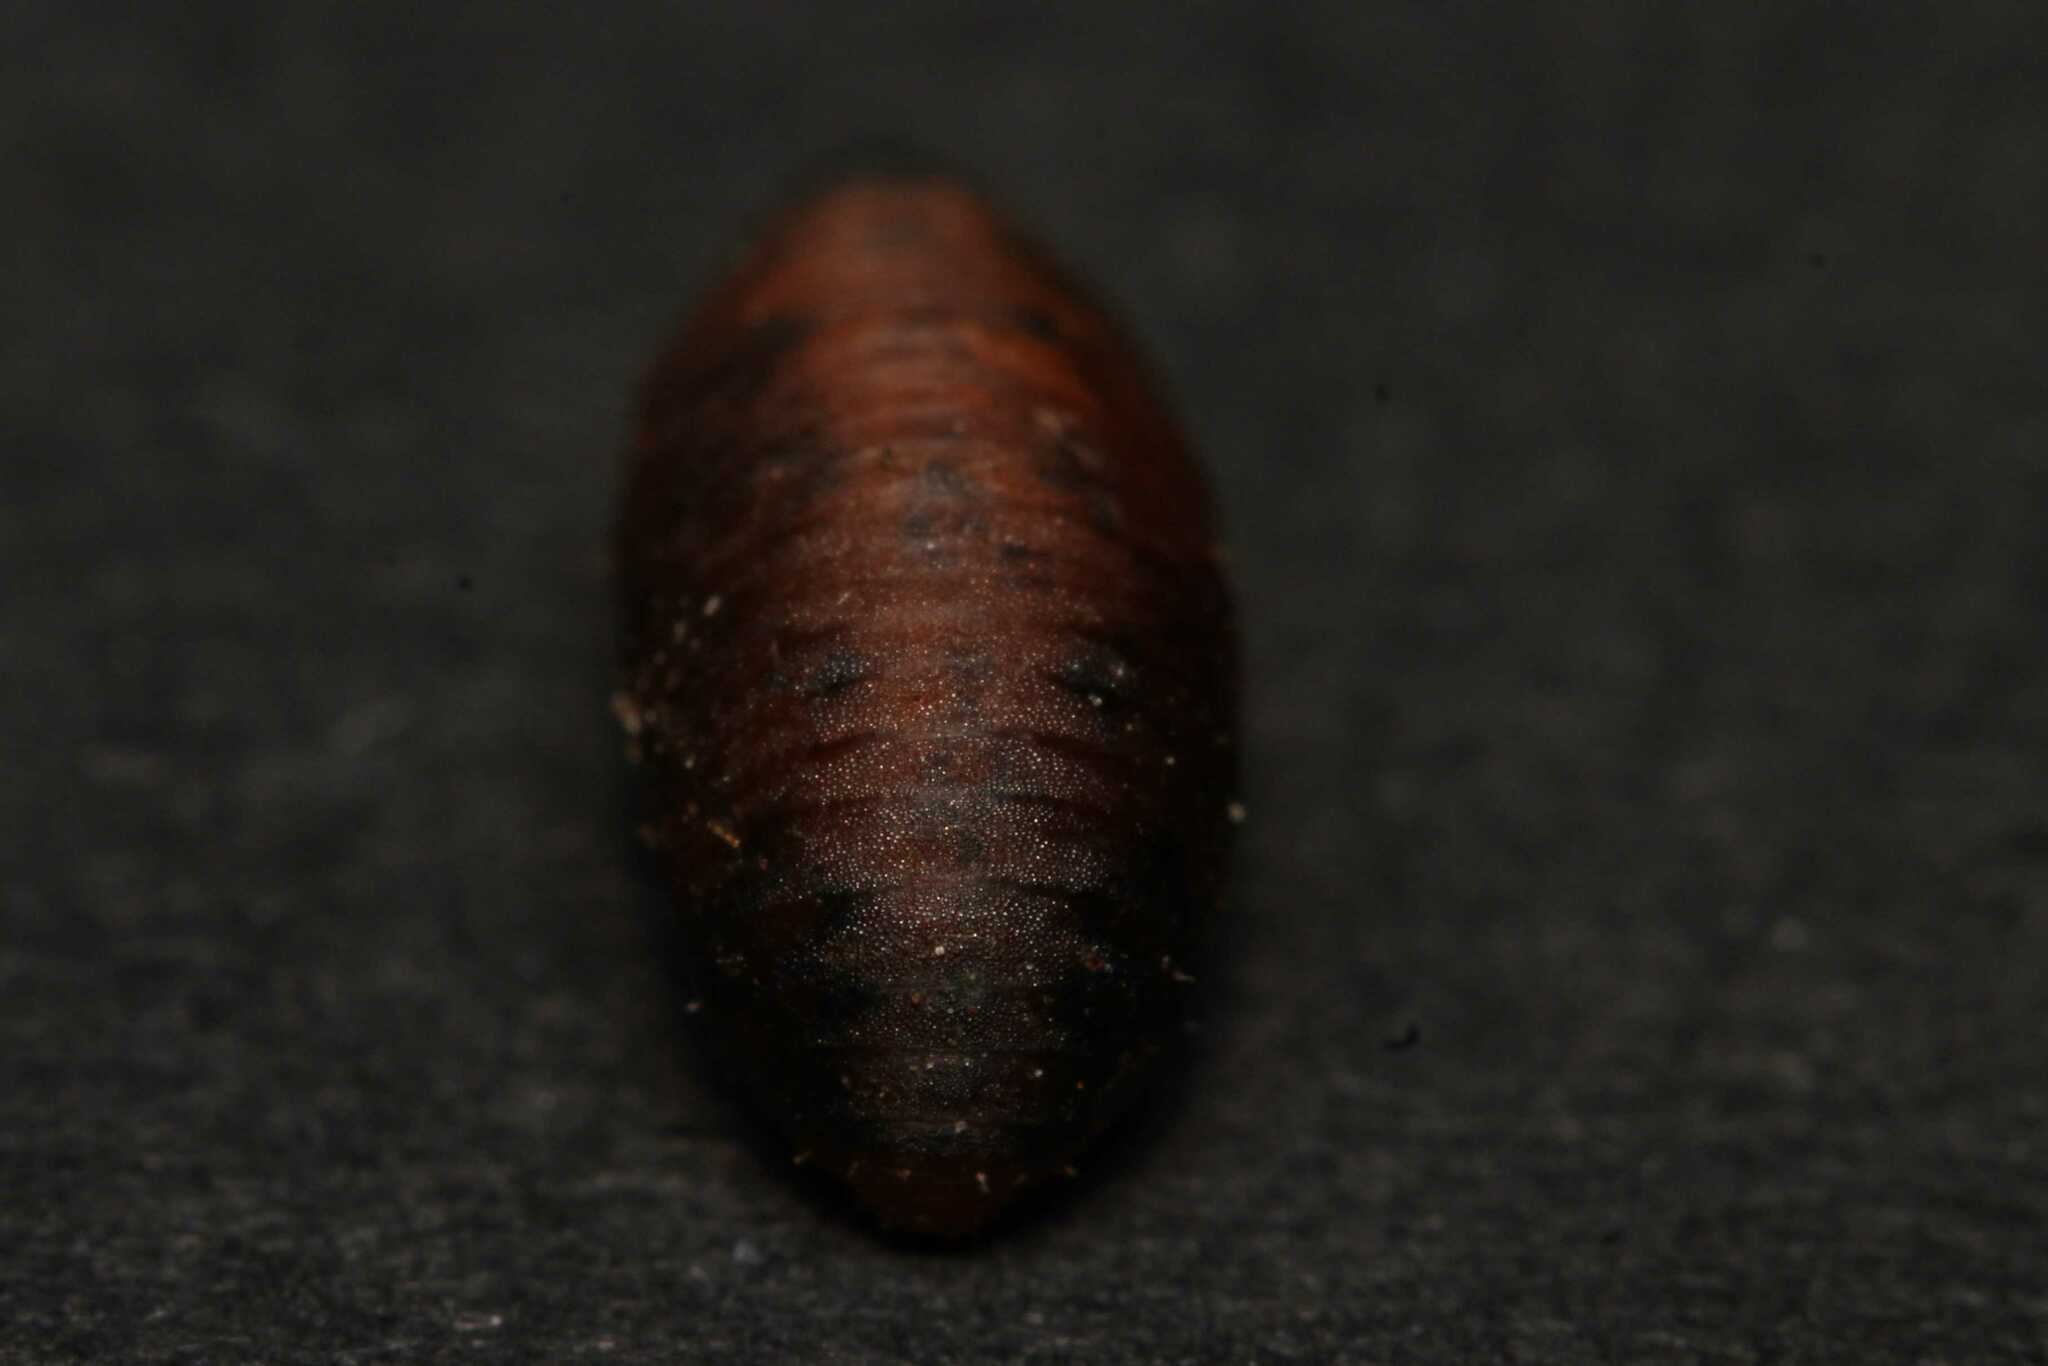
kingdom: Animalia
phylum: Arthropoda
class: Insecta
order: Diptera
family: Syrphidae
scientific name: Syrphidae
